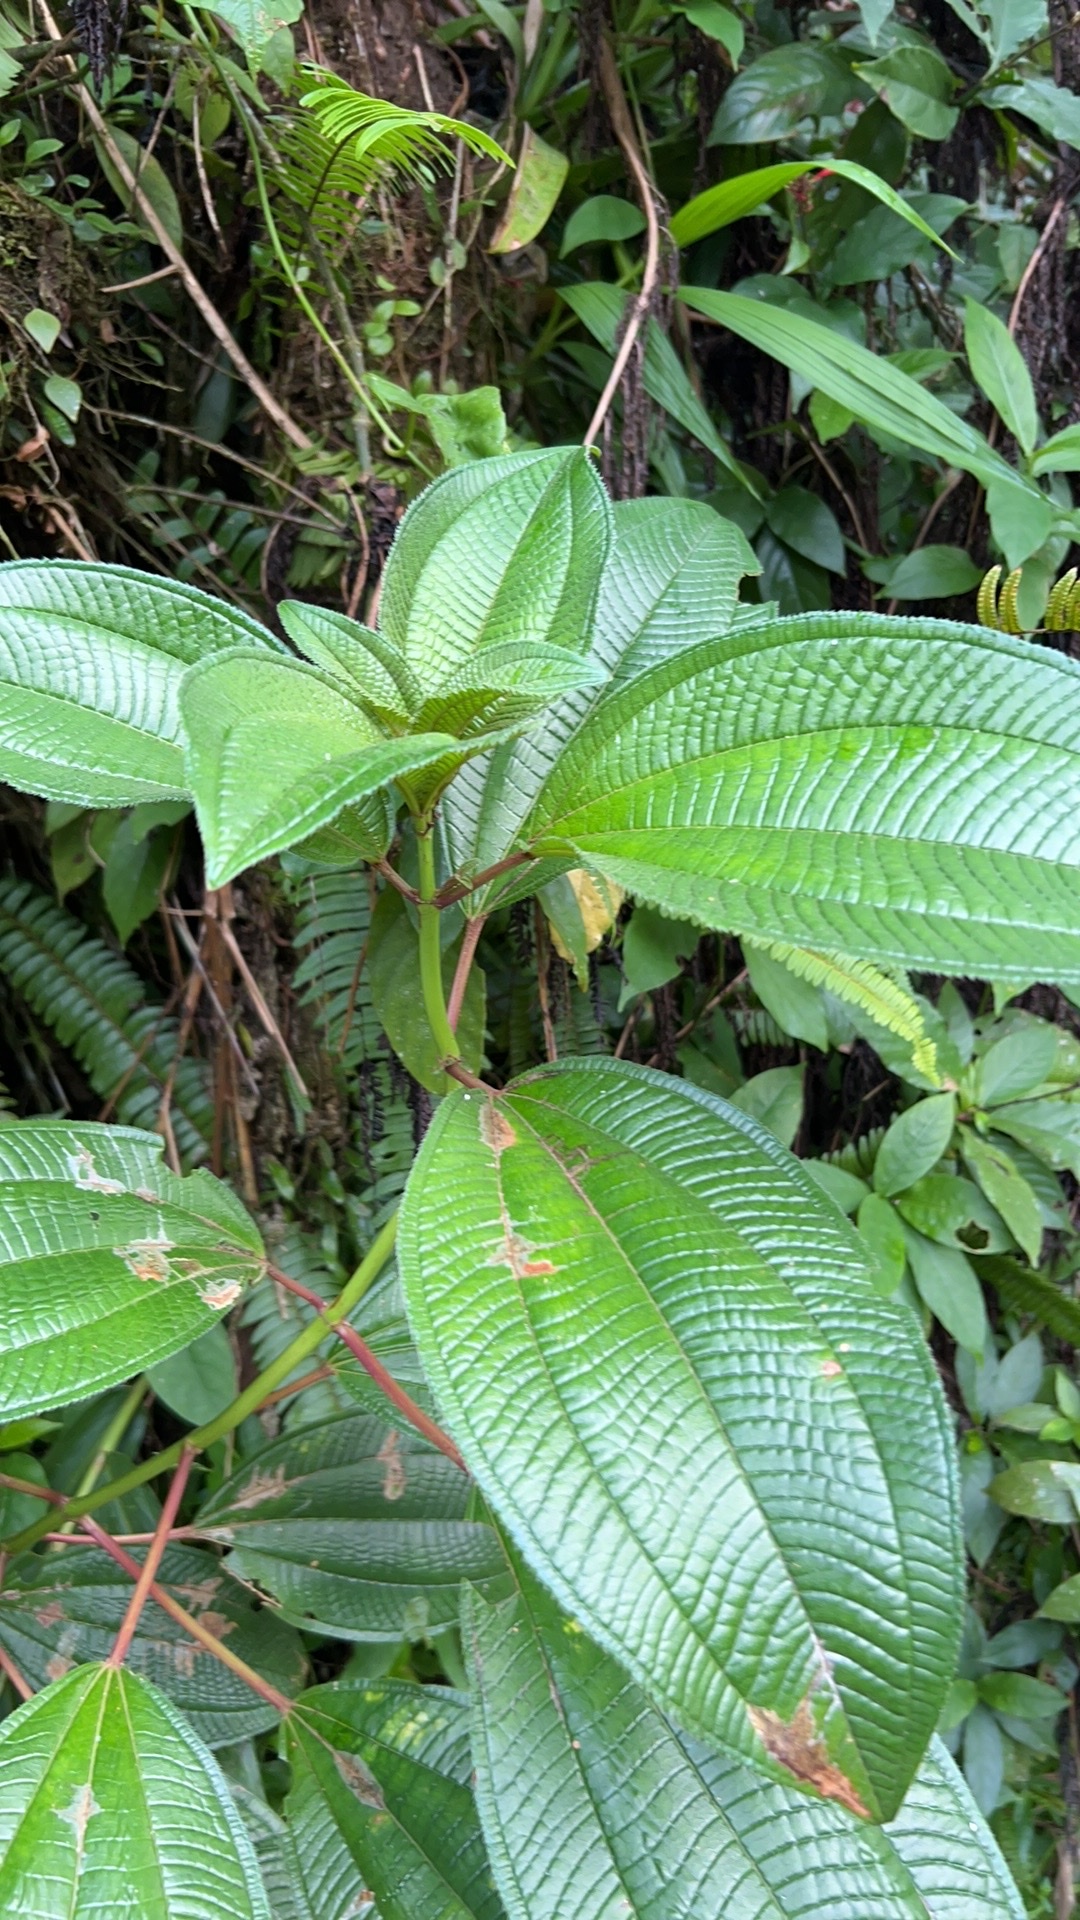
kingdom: Plantae
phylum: Tracheophyta
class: Magnoliopsida
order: Myrtales
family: Melastomataceae
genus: Miconia
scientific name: Miconia racemosa
